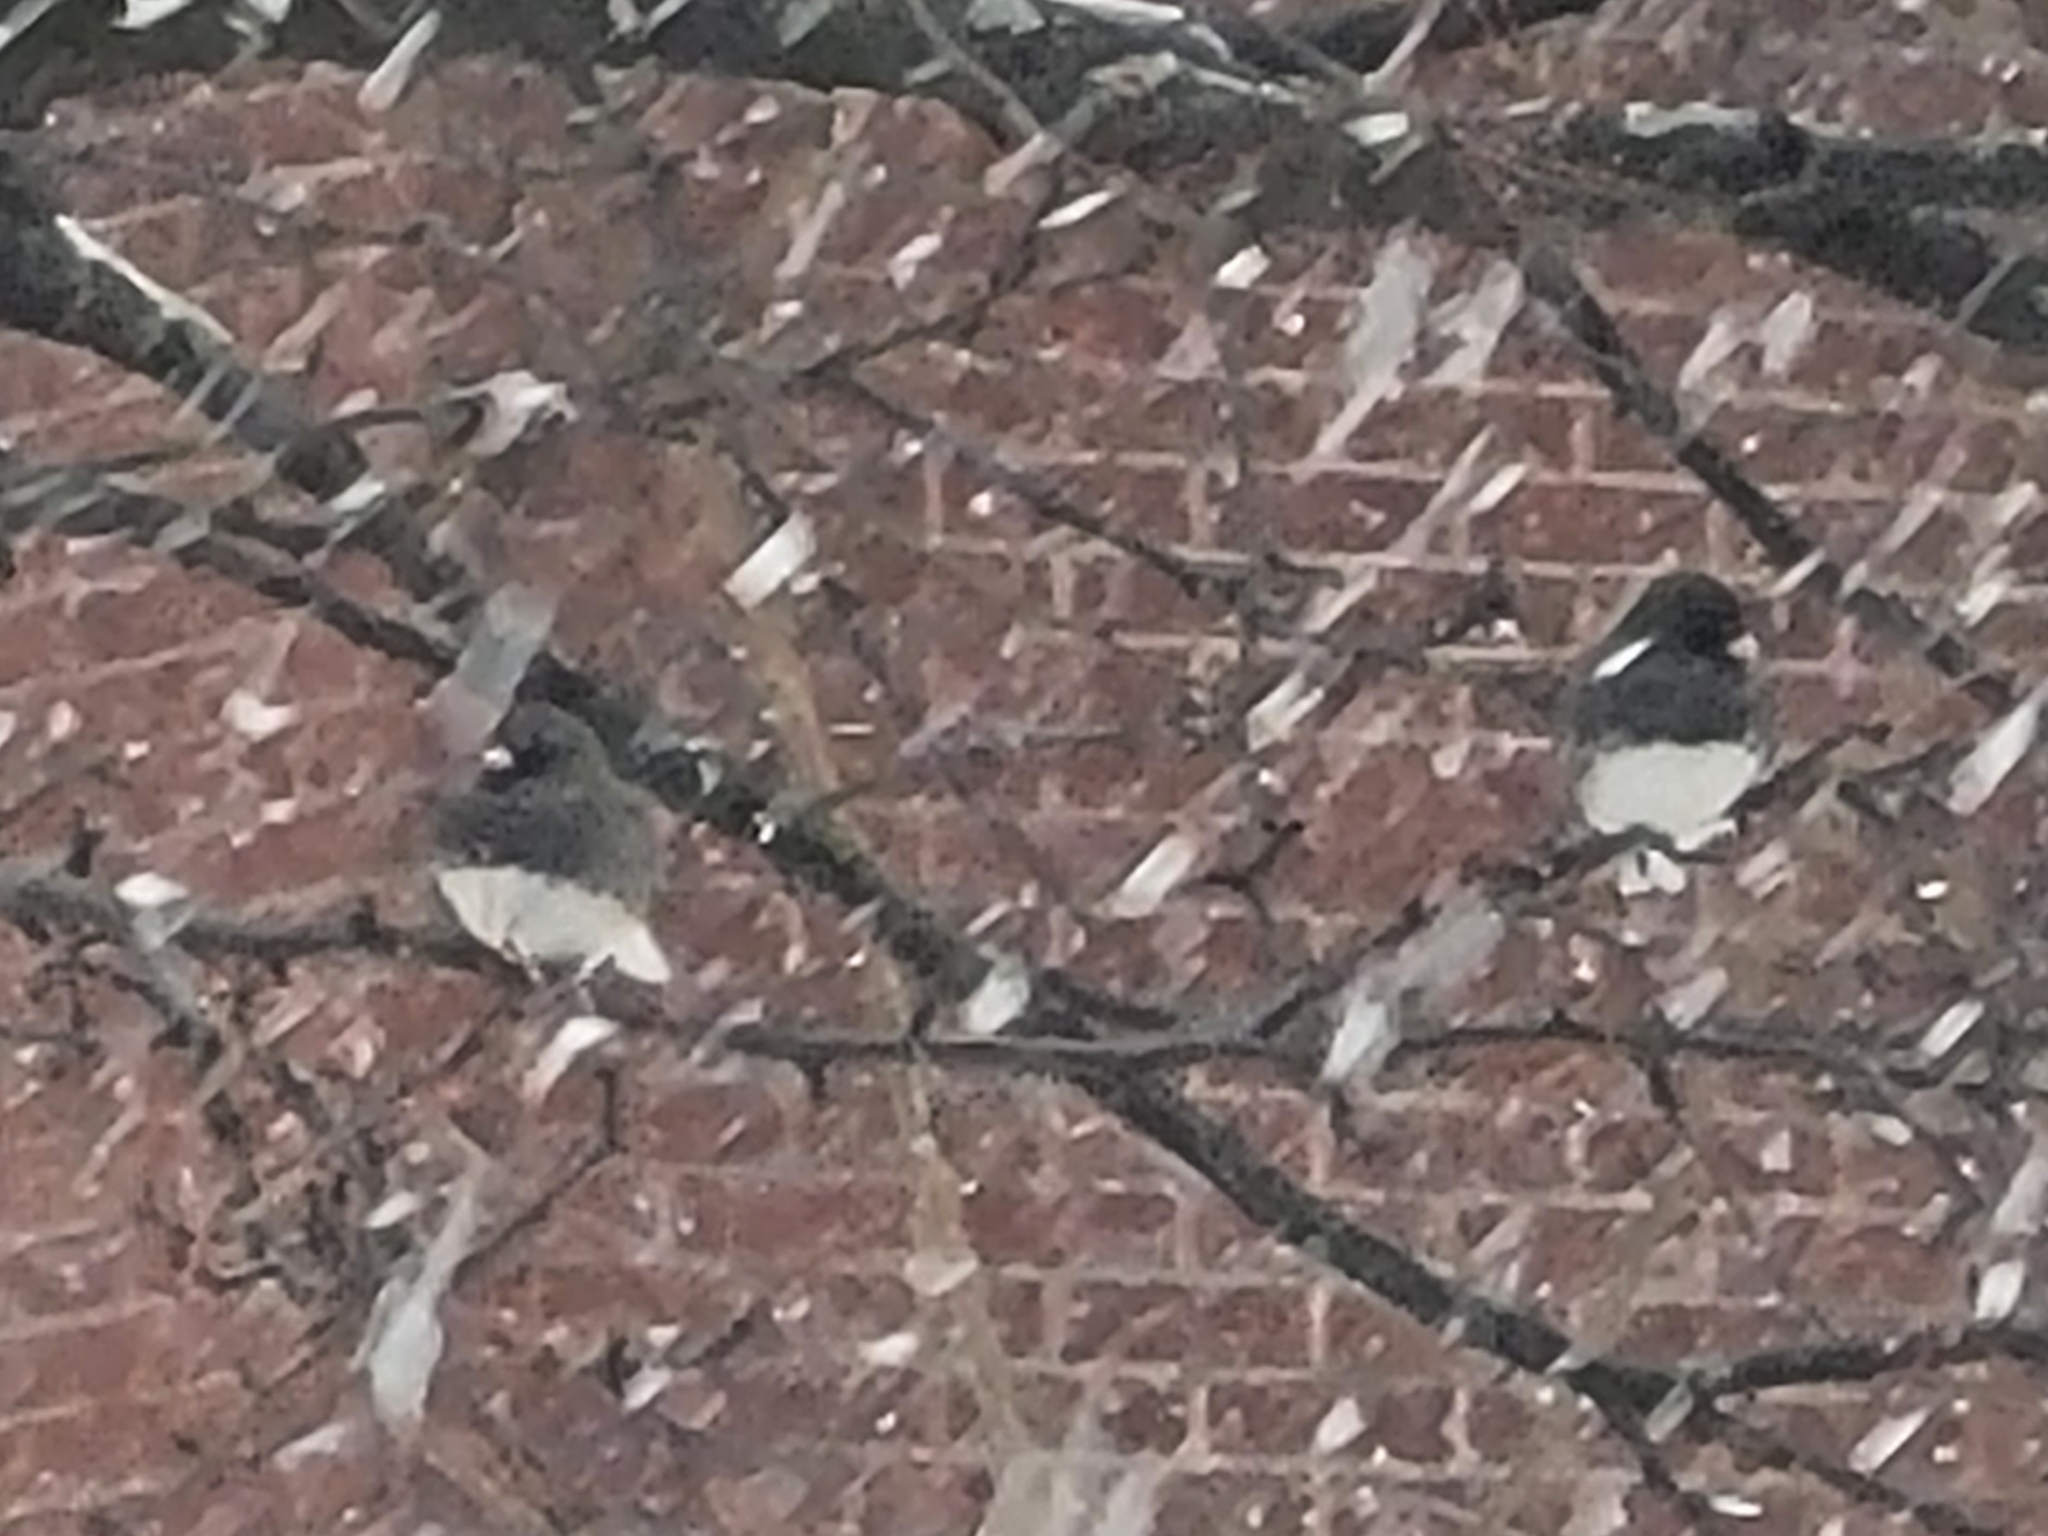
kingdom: Animalia
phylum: Chordata
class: Aves
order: Passeriformes
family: Passerellidae
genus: Junco
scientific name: Junco hyemalis
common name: Dark-eyed junco
